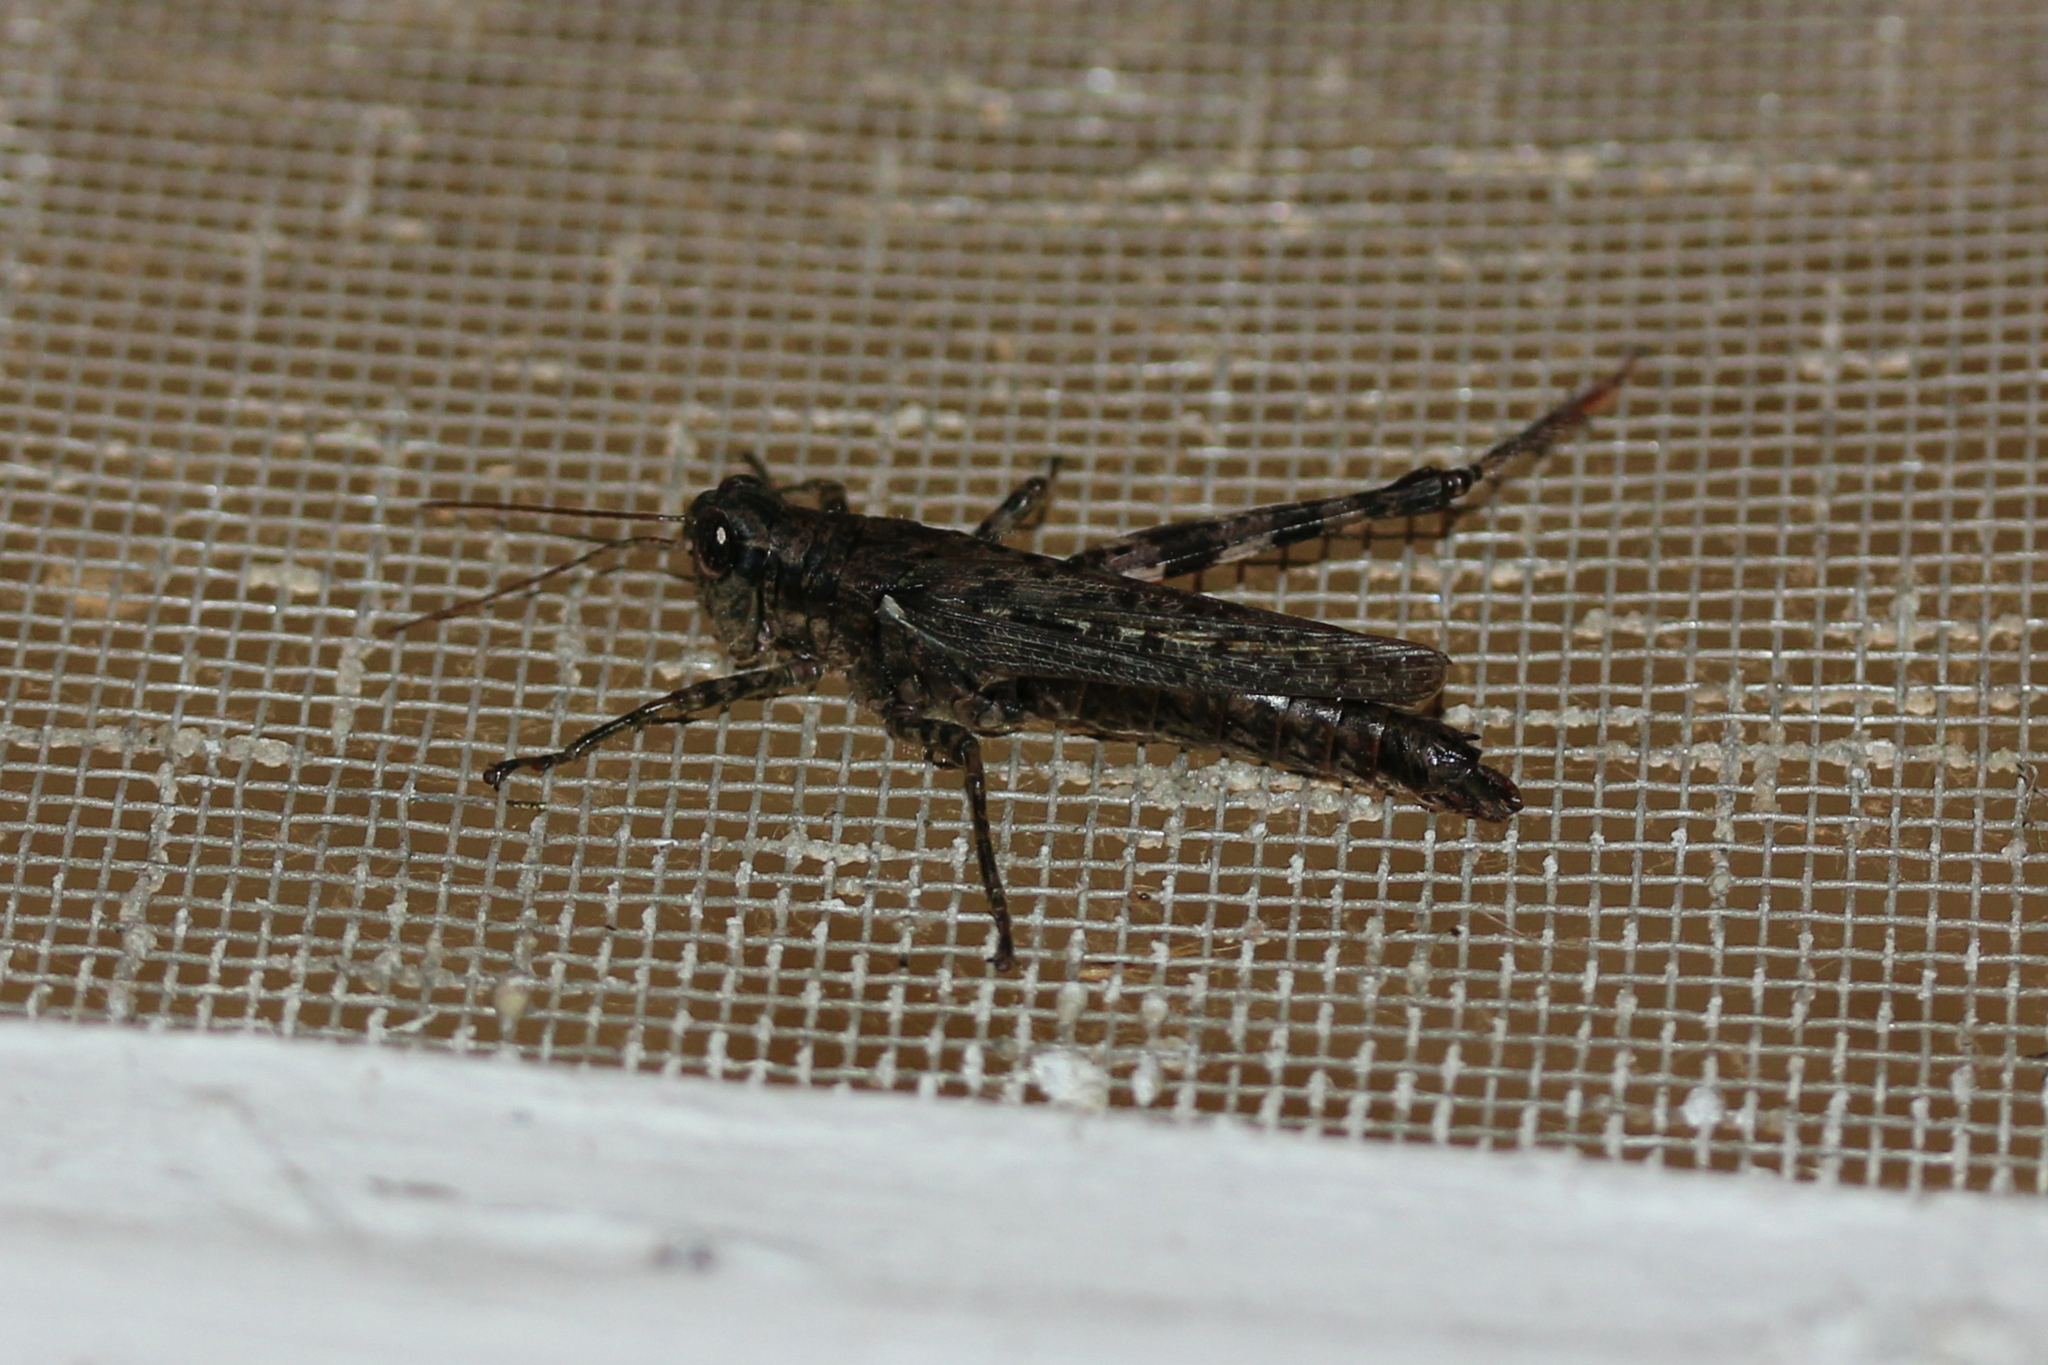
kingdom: Animalia
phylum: Arthropoda
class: Insecta
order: Orthoptera
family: Acrididae
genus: Melanoplus
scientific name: Melanoplus punctulatus
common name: Pine-tree spur-throat grasshopper
